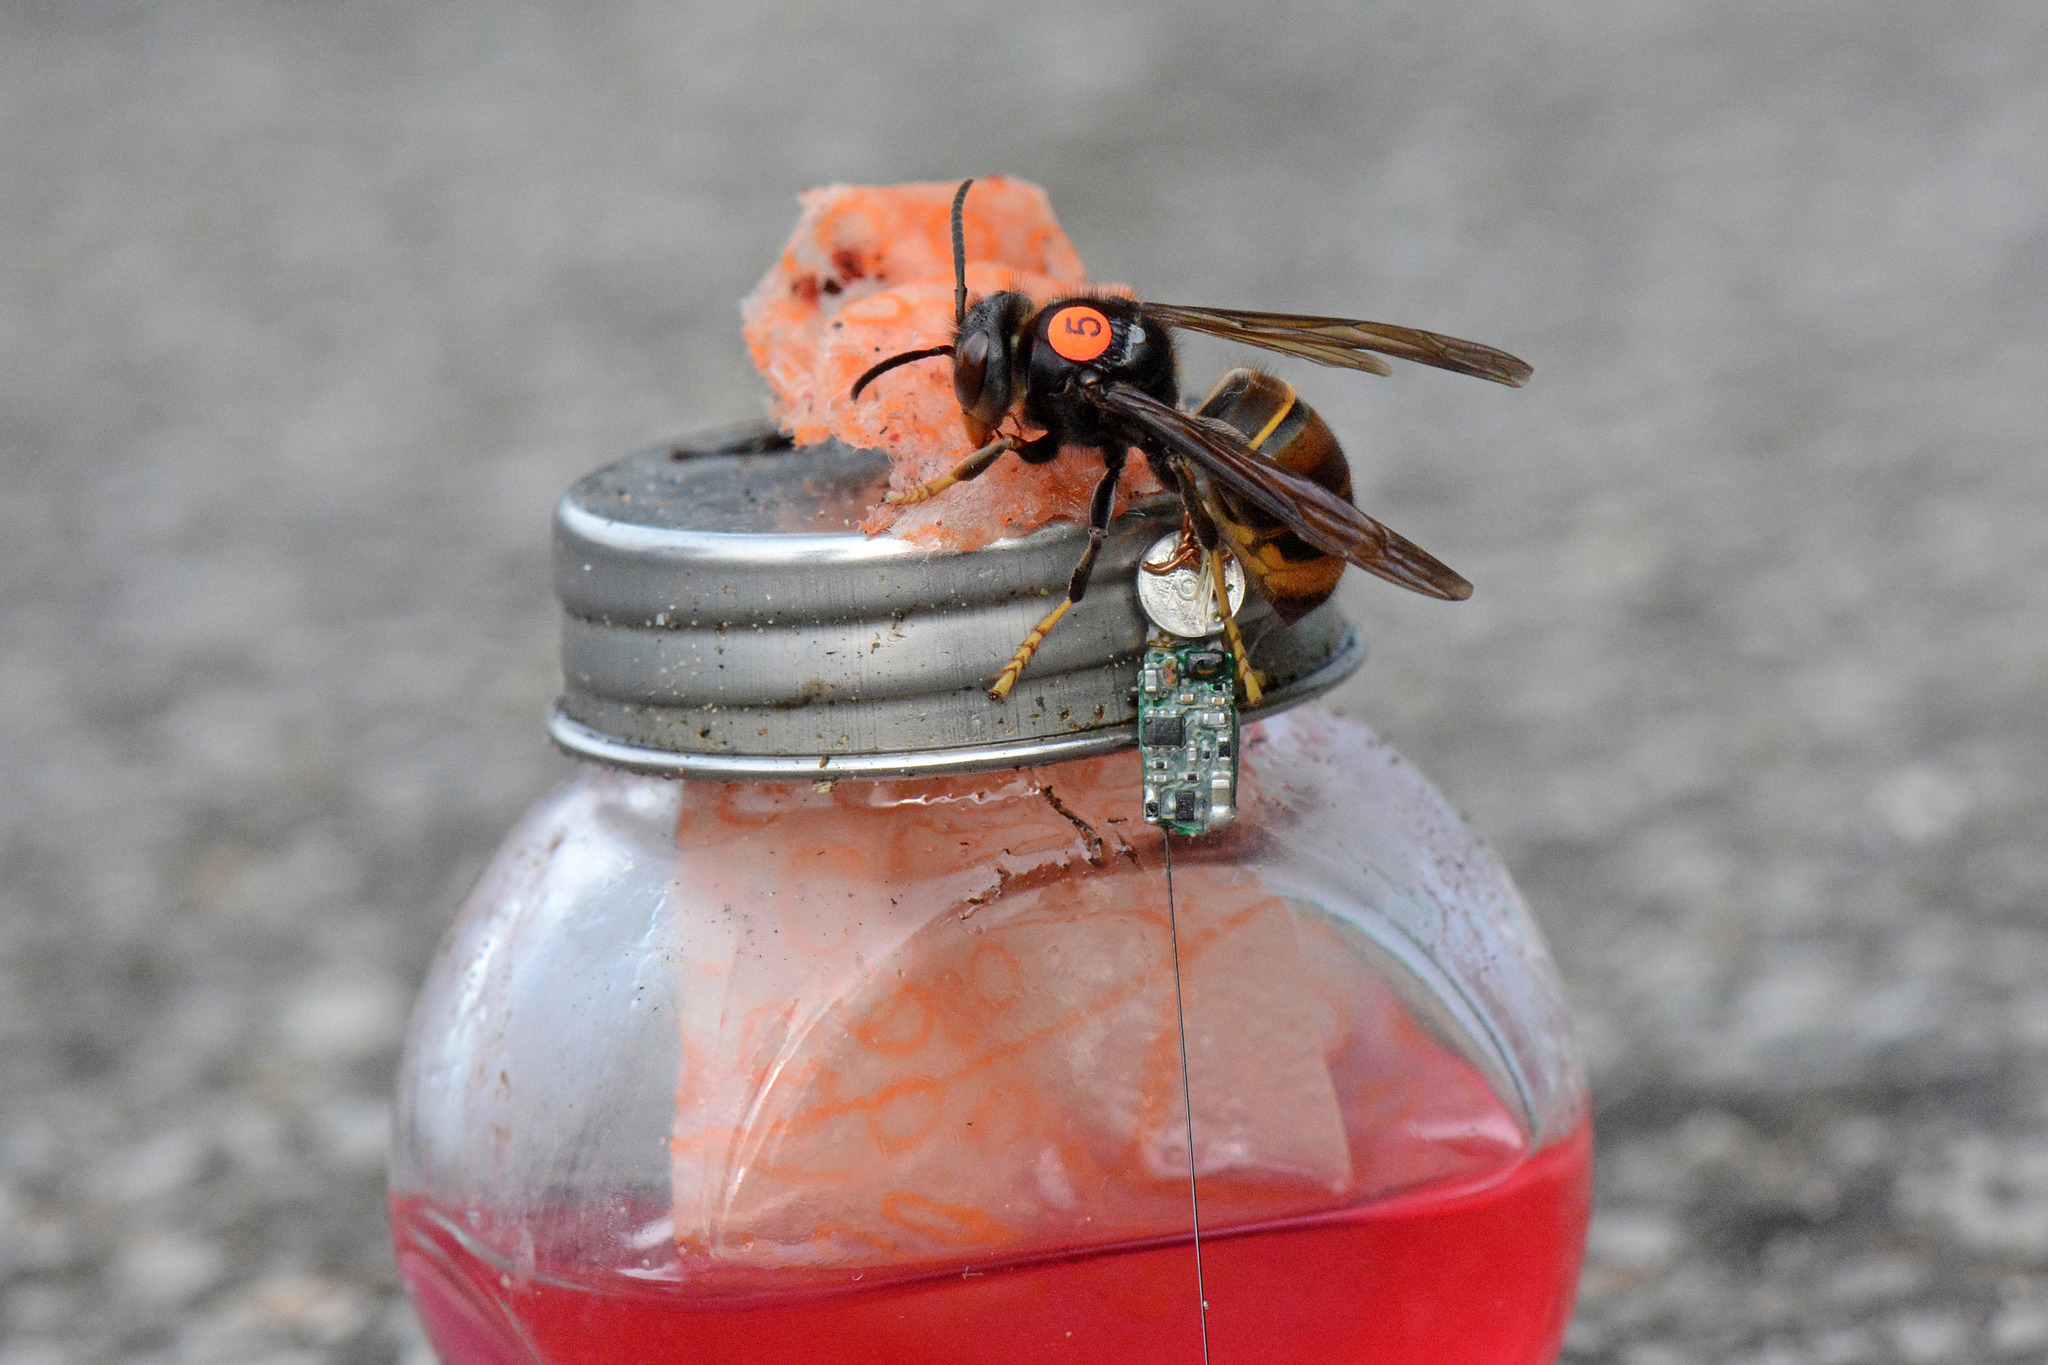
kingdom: Animalia
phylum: Arthropoda
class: Insecta
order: Hymenoptera
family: Vespidae
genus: Vespa
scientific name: Vespa velutina
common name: Asian hornet
